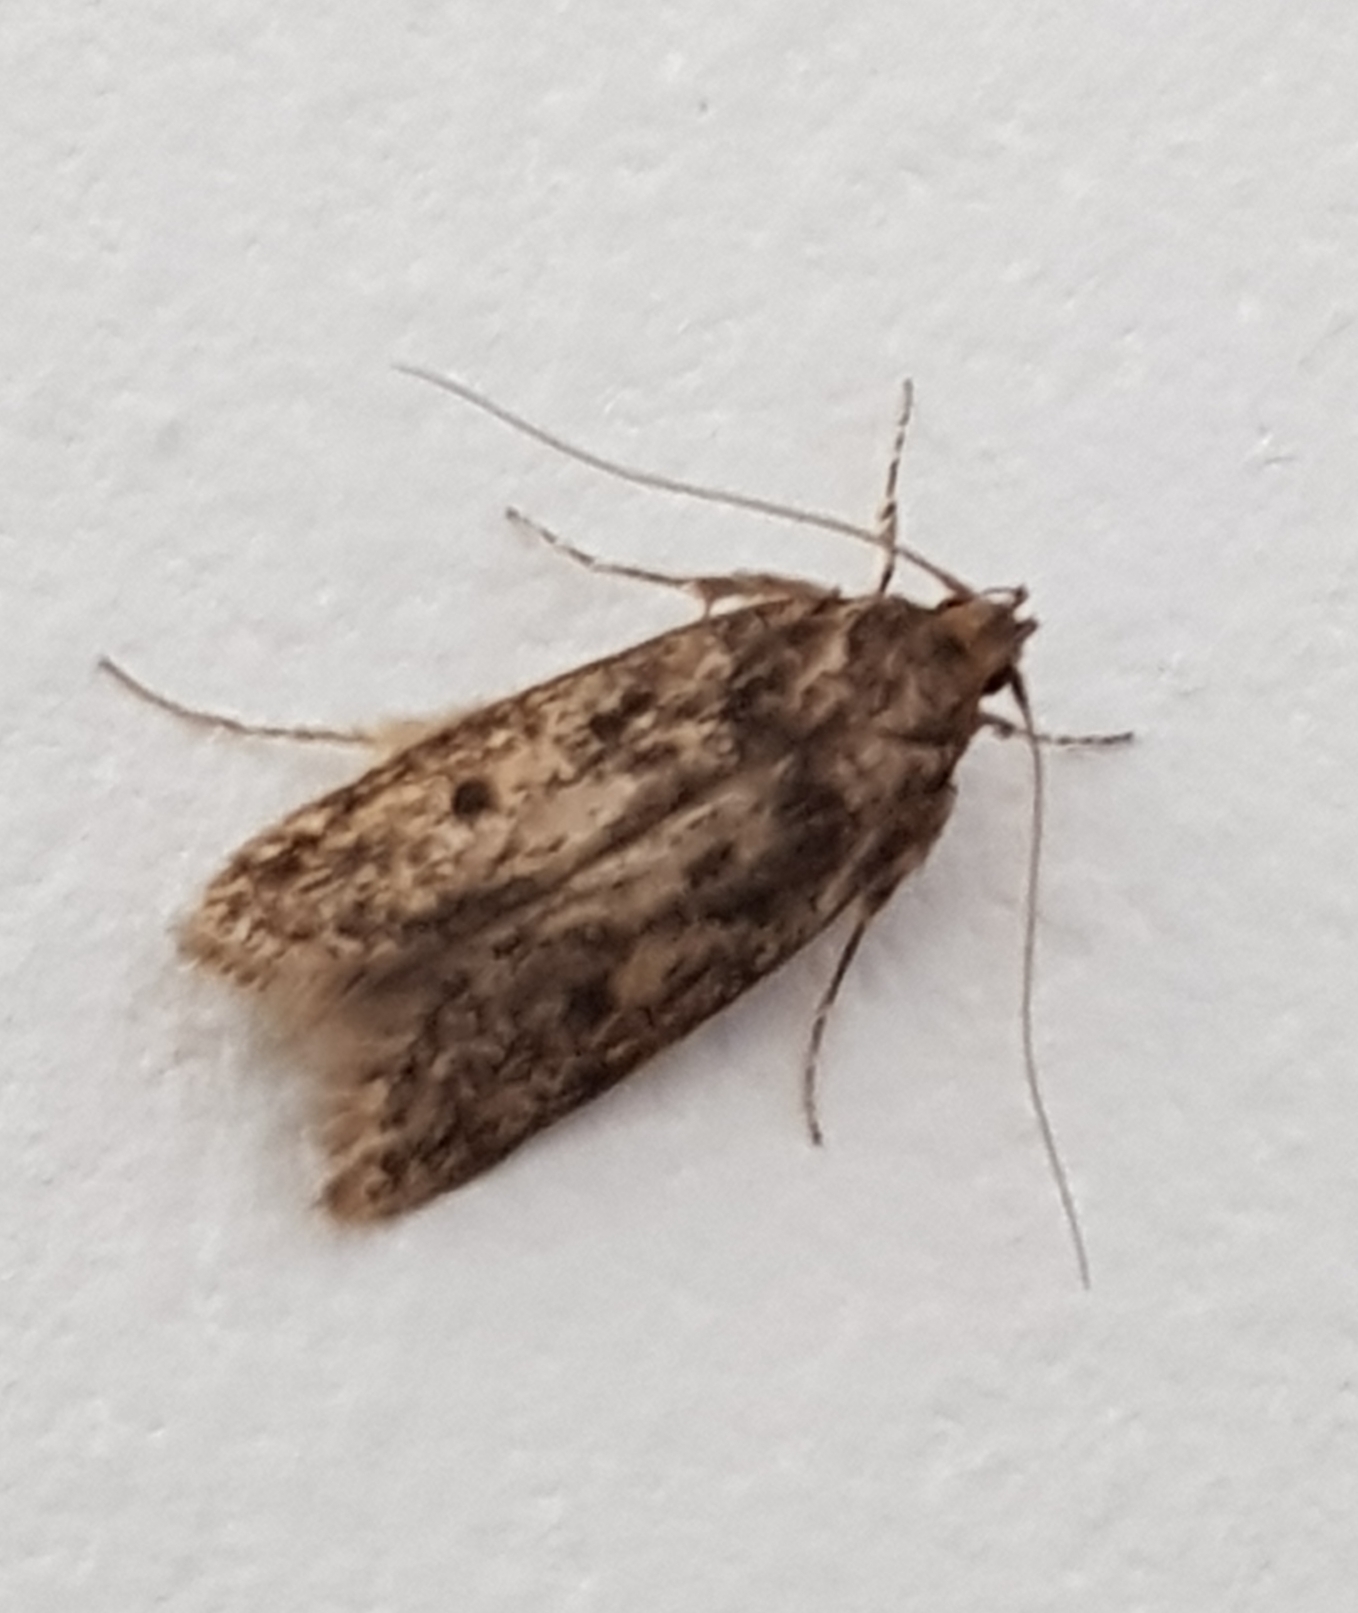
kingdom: Animalia
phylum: Arthropoda
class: Insecta
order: Lepidoptera
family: Oecophoridae
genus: Hofmannophila
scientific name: Hofmannophila pseudospretella
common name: Brown house moth
